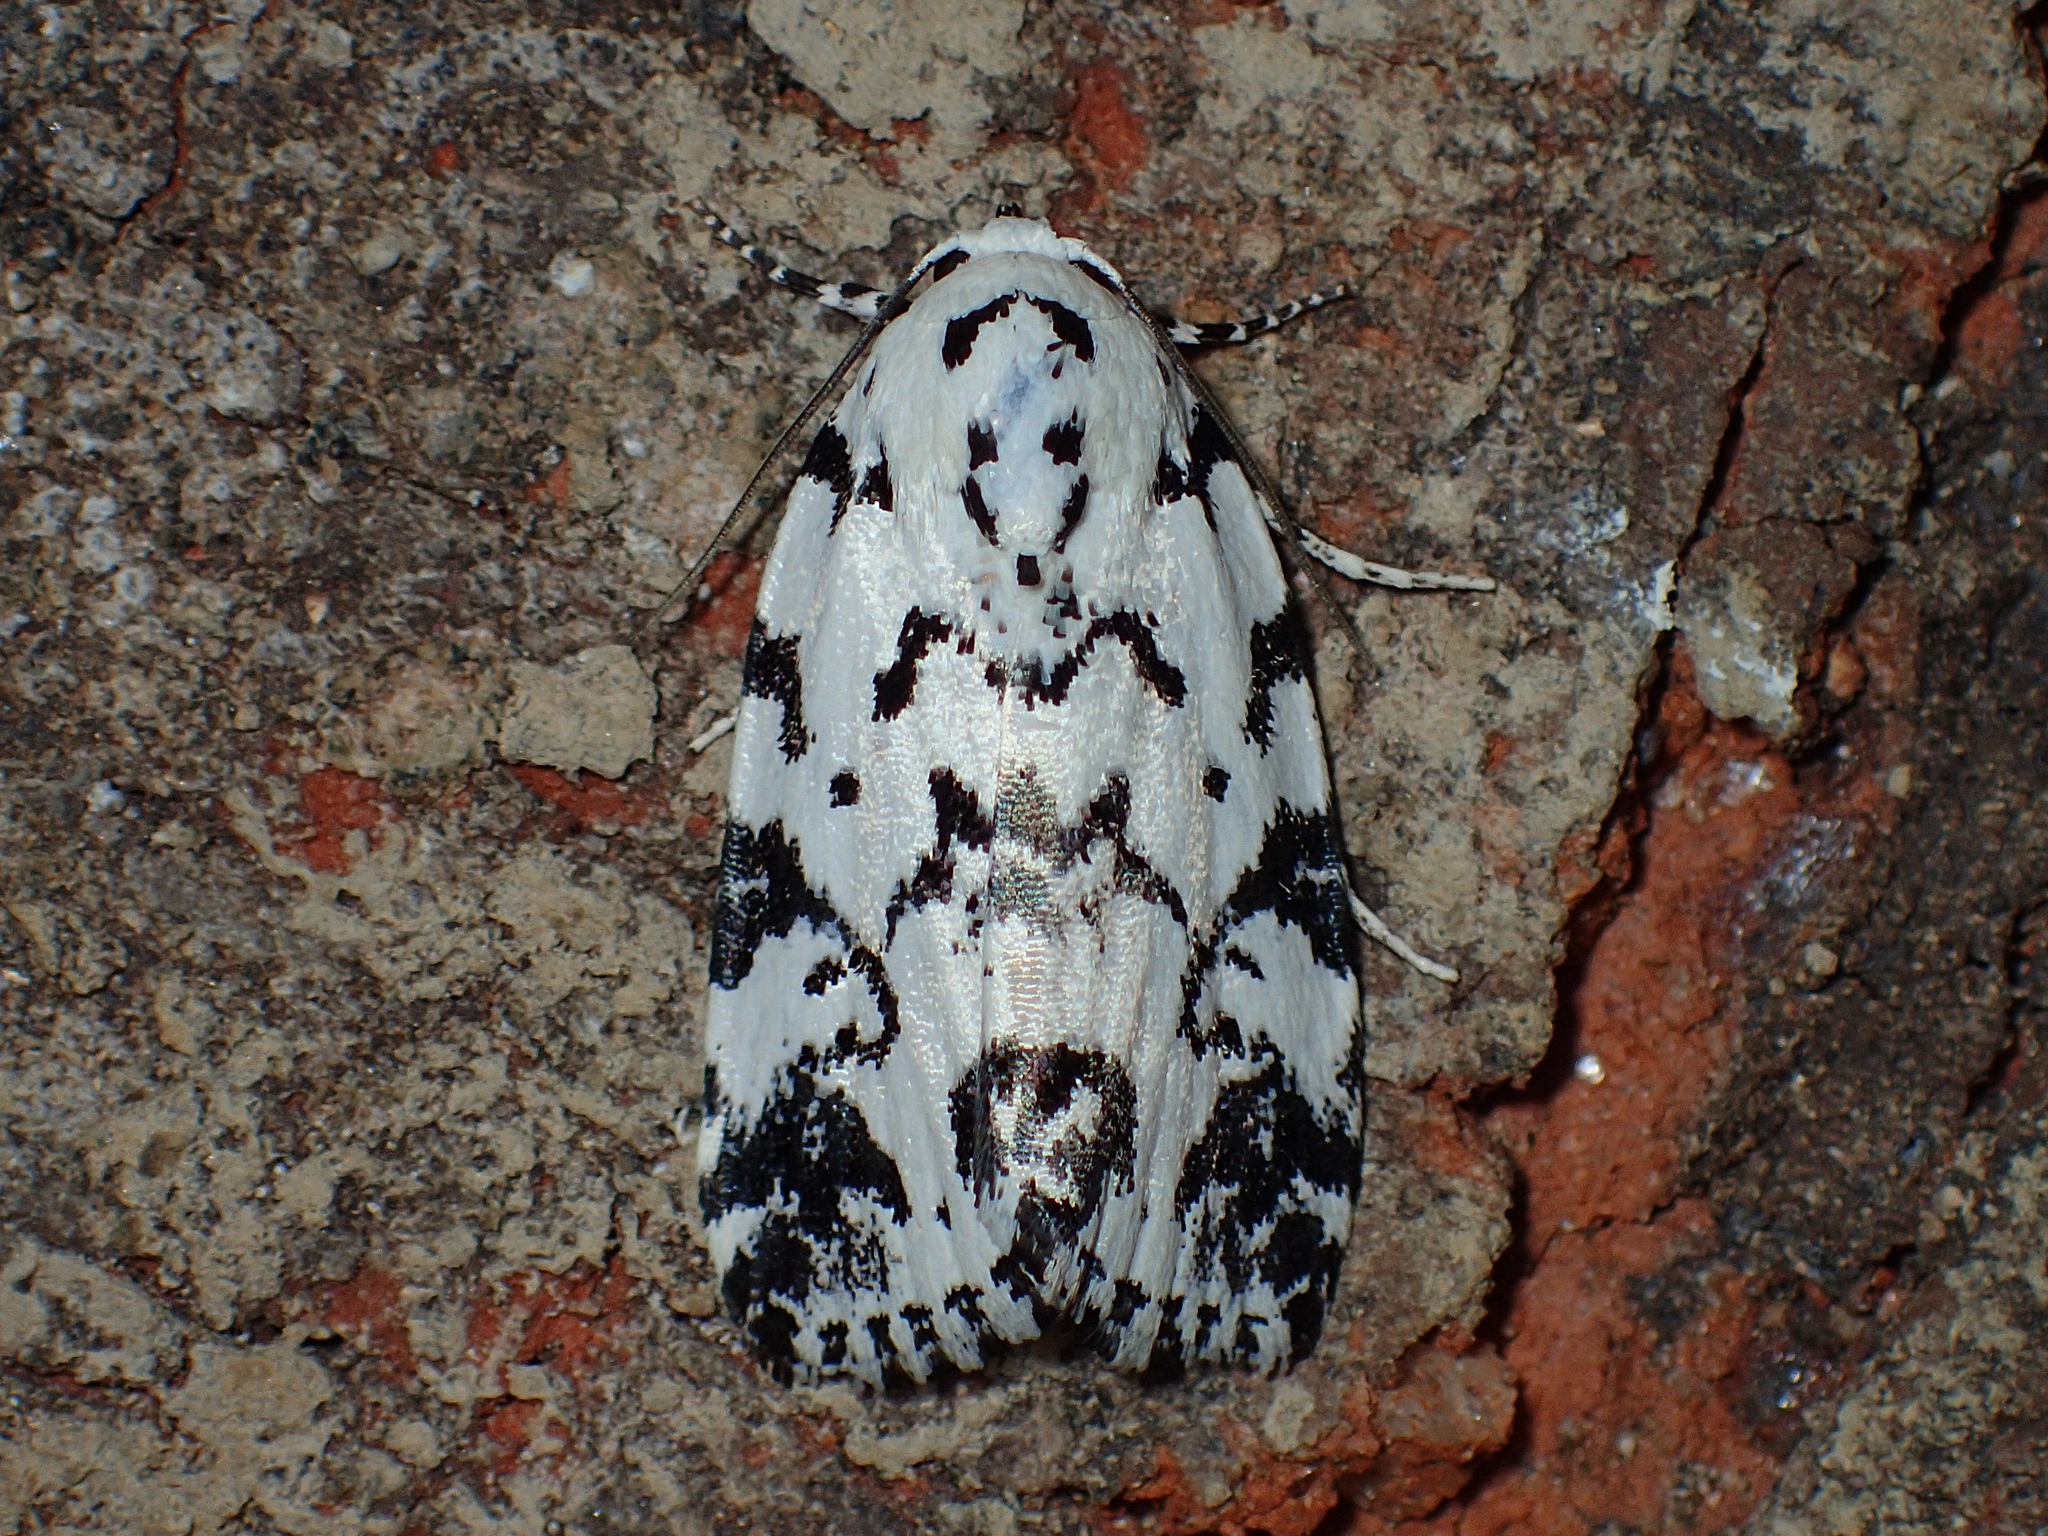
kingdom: Animalia
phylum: Arthropoda
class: Insecta
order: Lepidoptera
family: Noctuidae
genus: Polygrammate
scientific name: Polygrammate hebraeicum
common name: Hebrew moth
